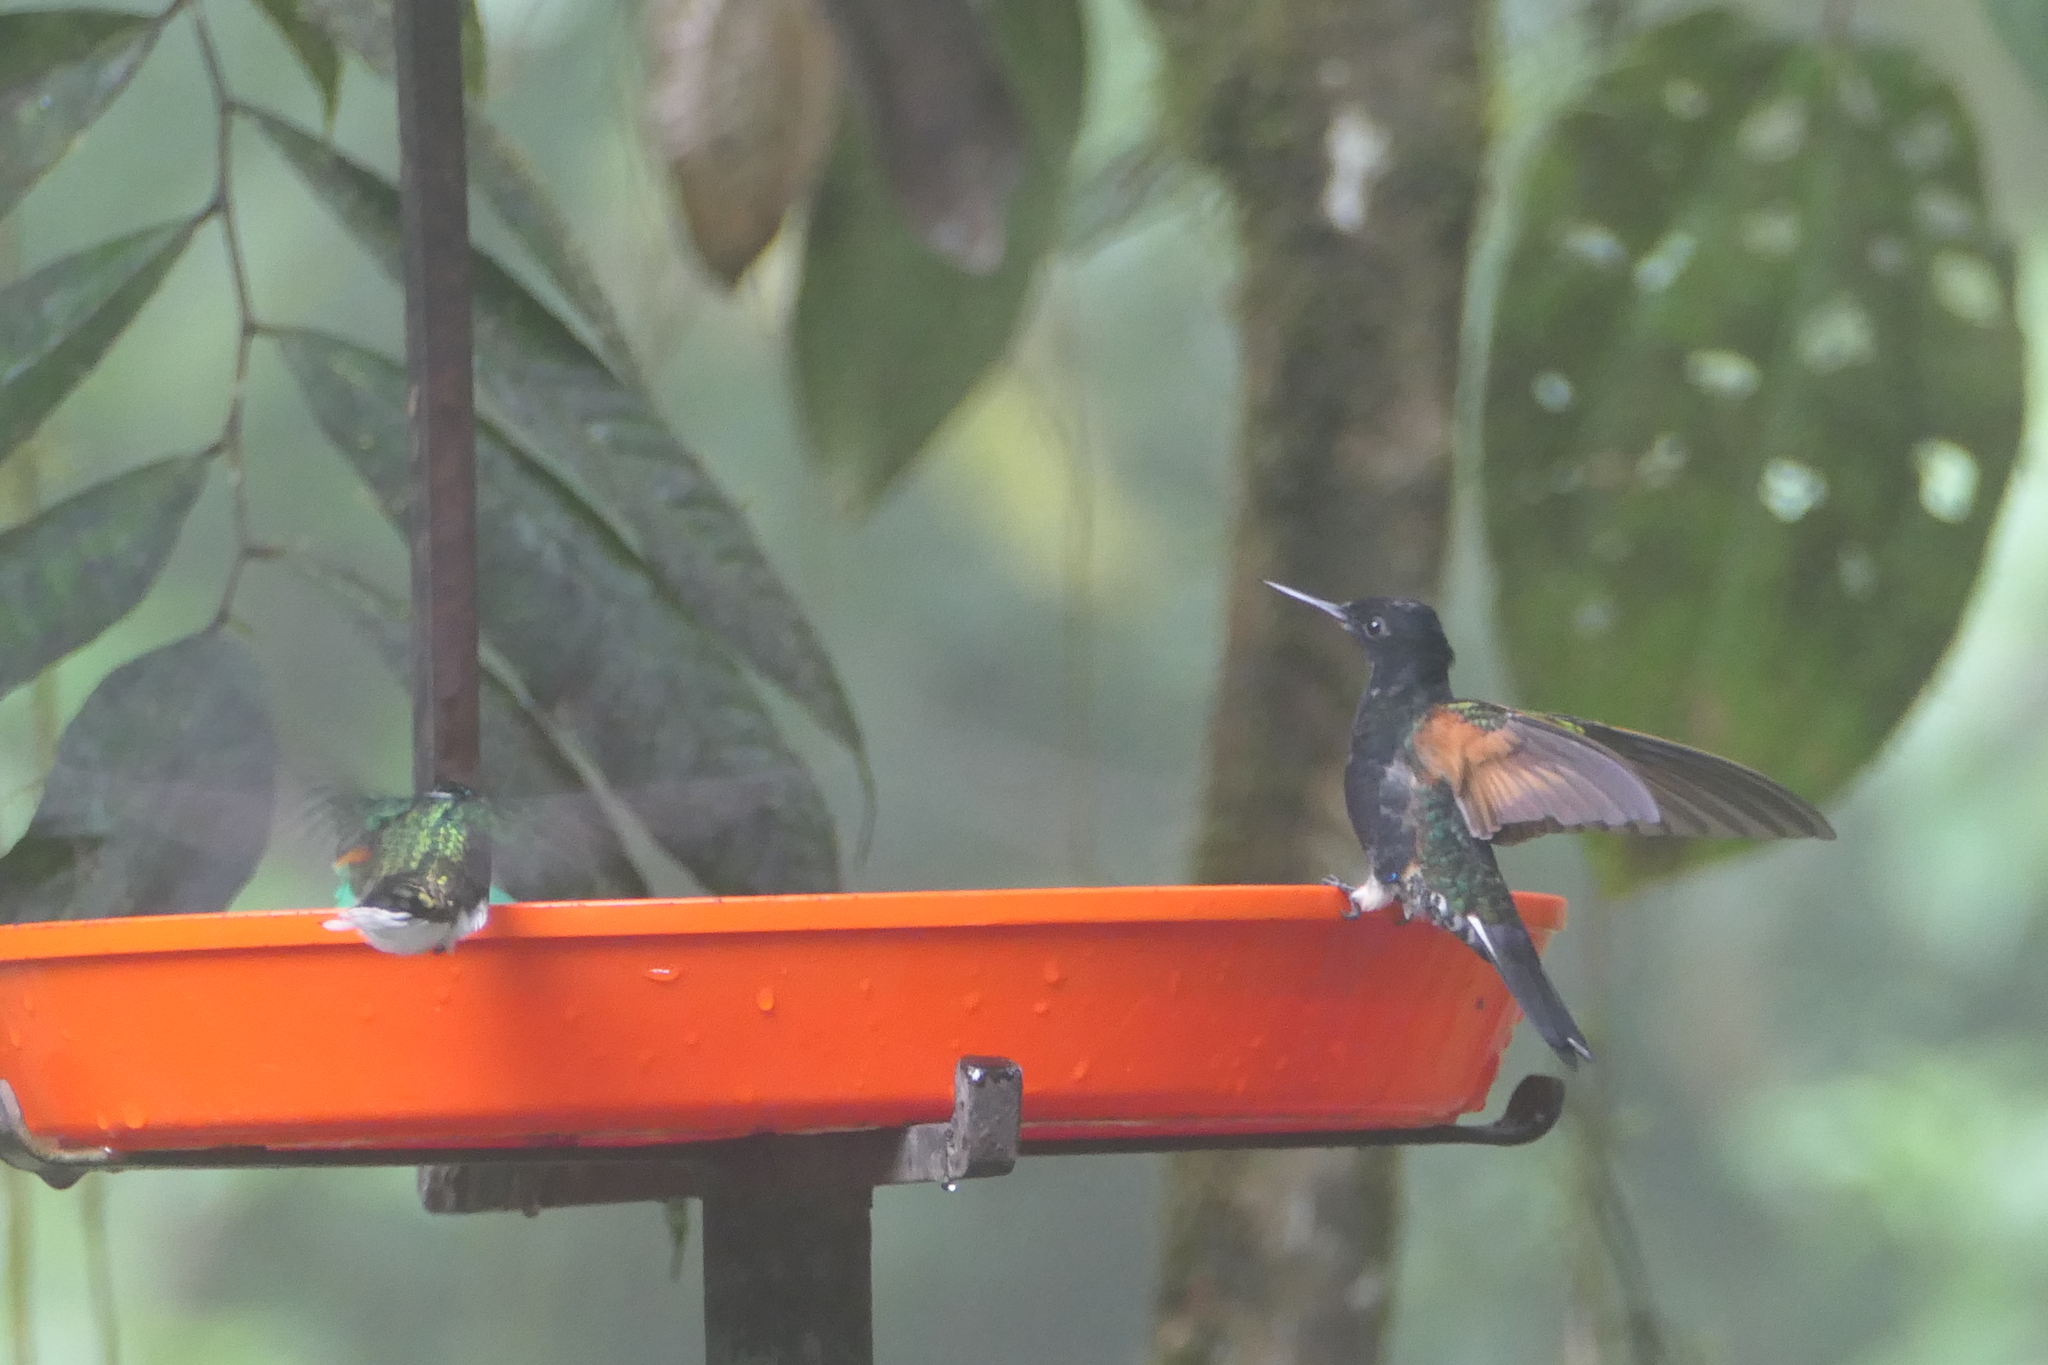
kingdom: Animalia
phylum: Chordata
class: Aves
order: Apodiformes
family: Trochilidae
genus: Boissonneaua
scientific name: Boissonneaua jardini
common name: Velvet-purple coronet
